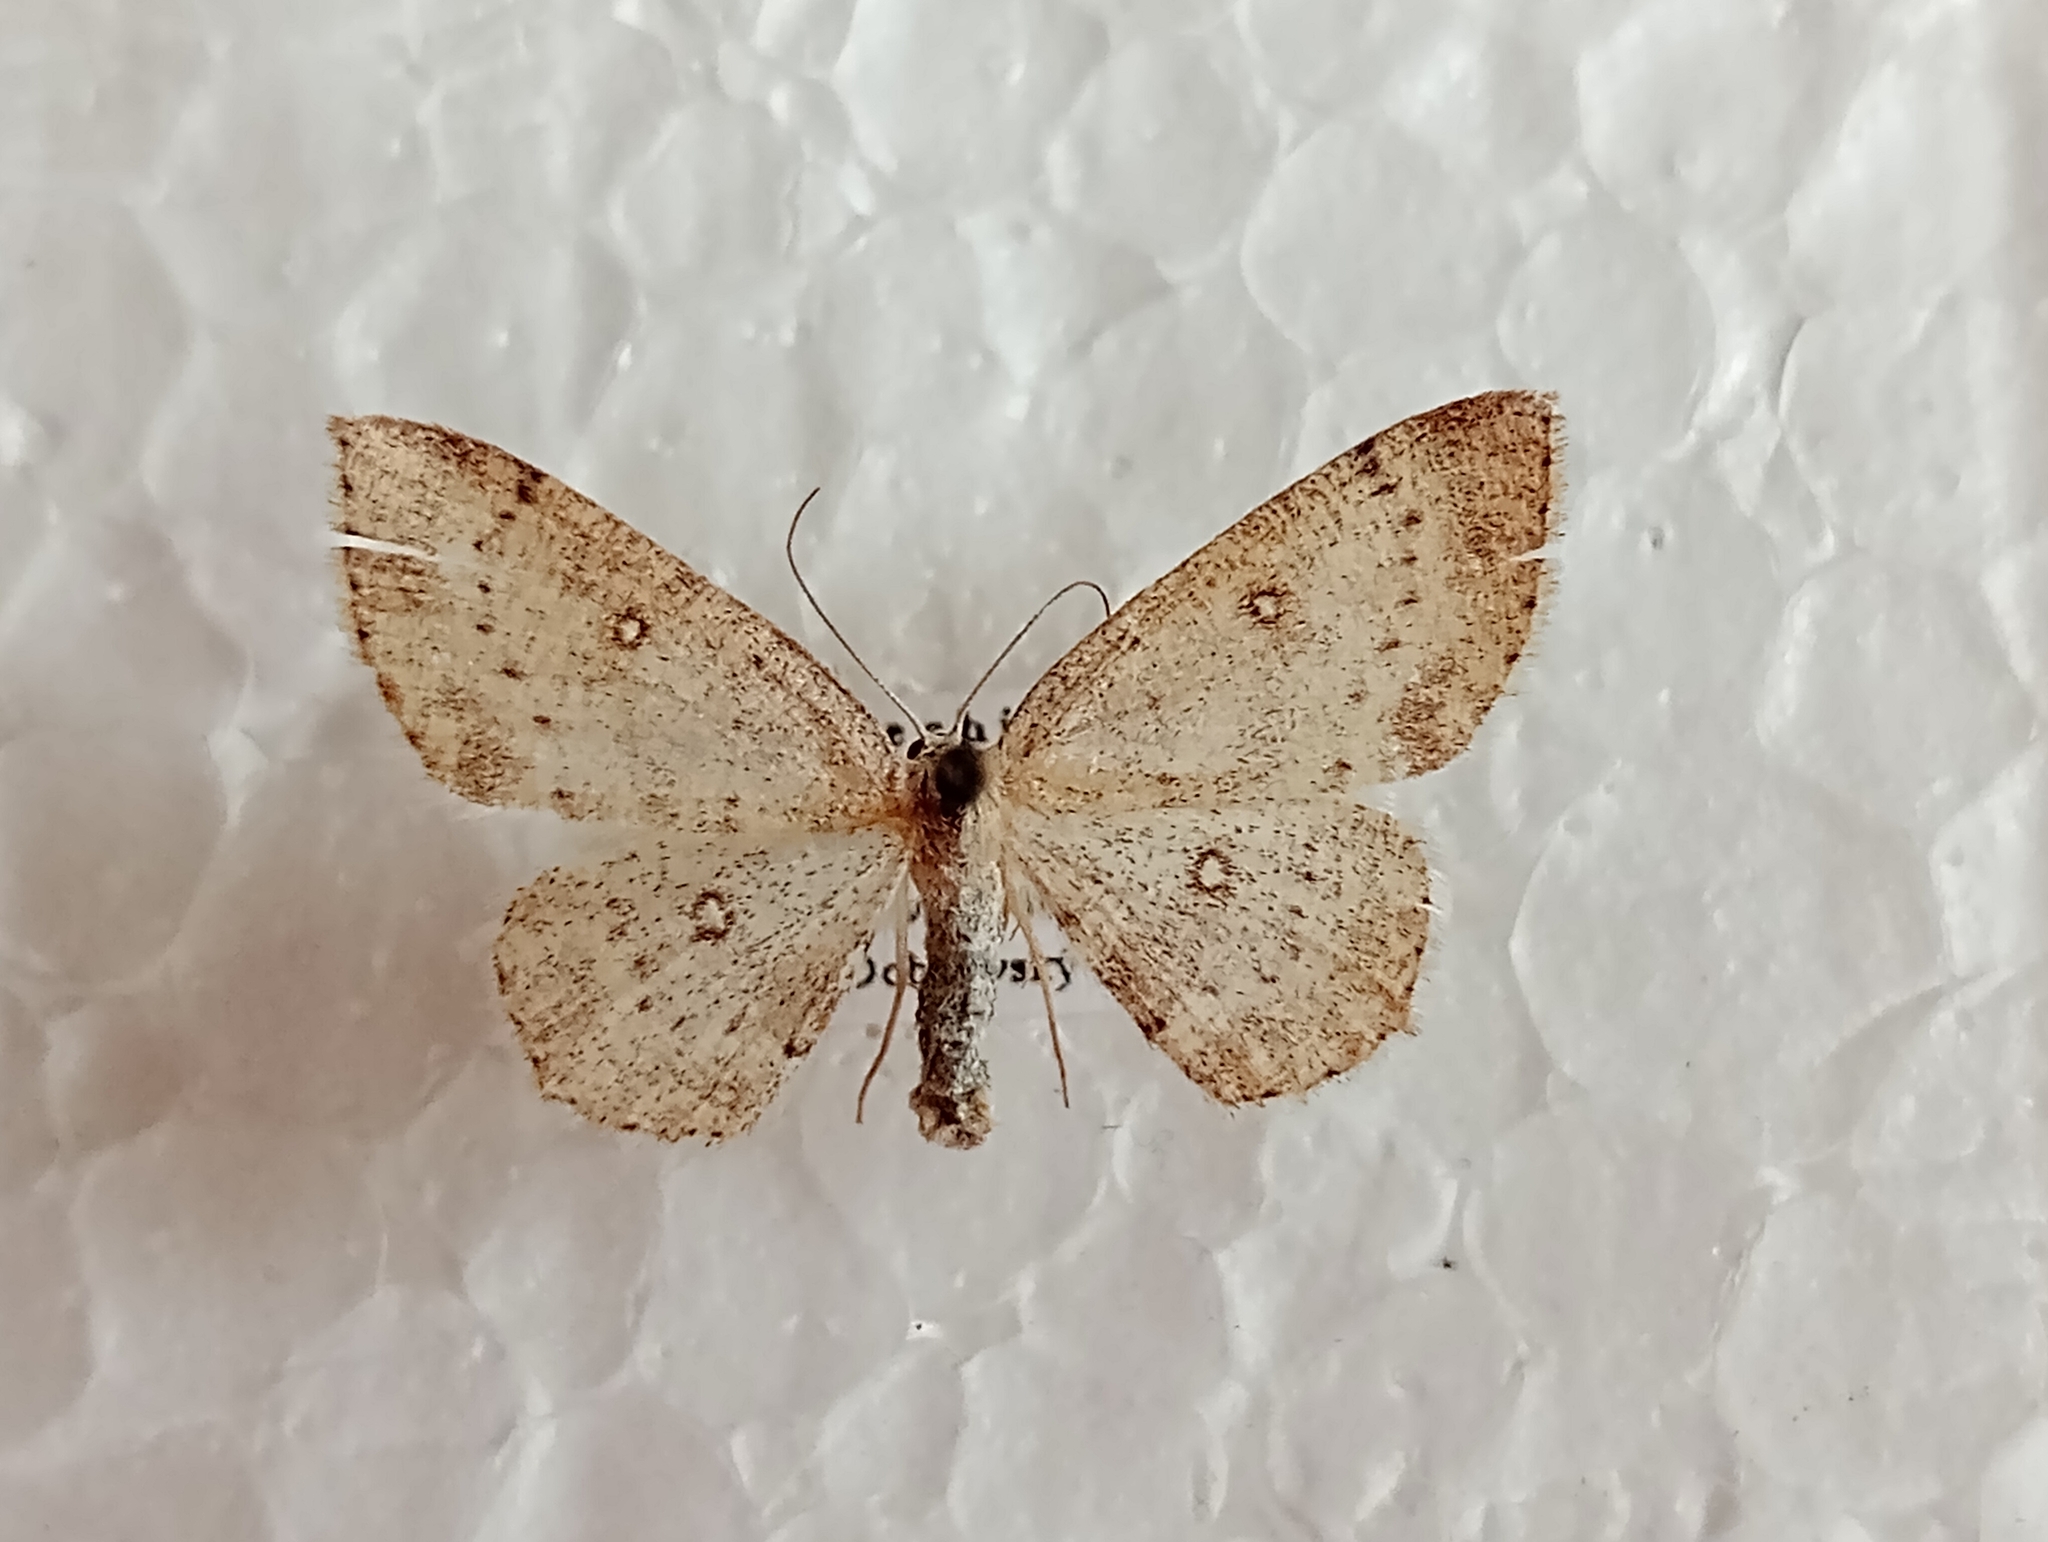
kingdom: Animalia
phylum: Arthropoda
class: Insecta
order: Lepidoptera
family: Geometridae
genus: Cyclophora
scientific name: Cyclophora albipunctata
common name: Birch mocha
